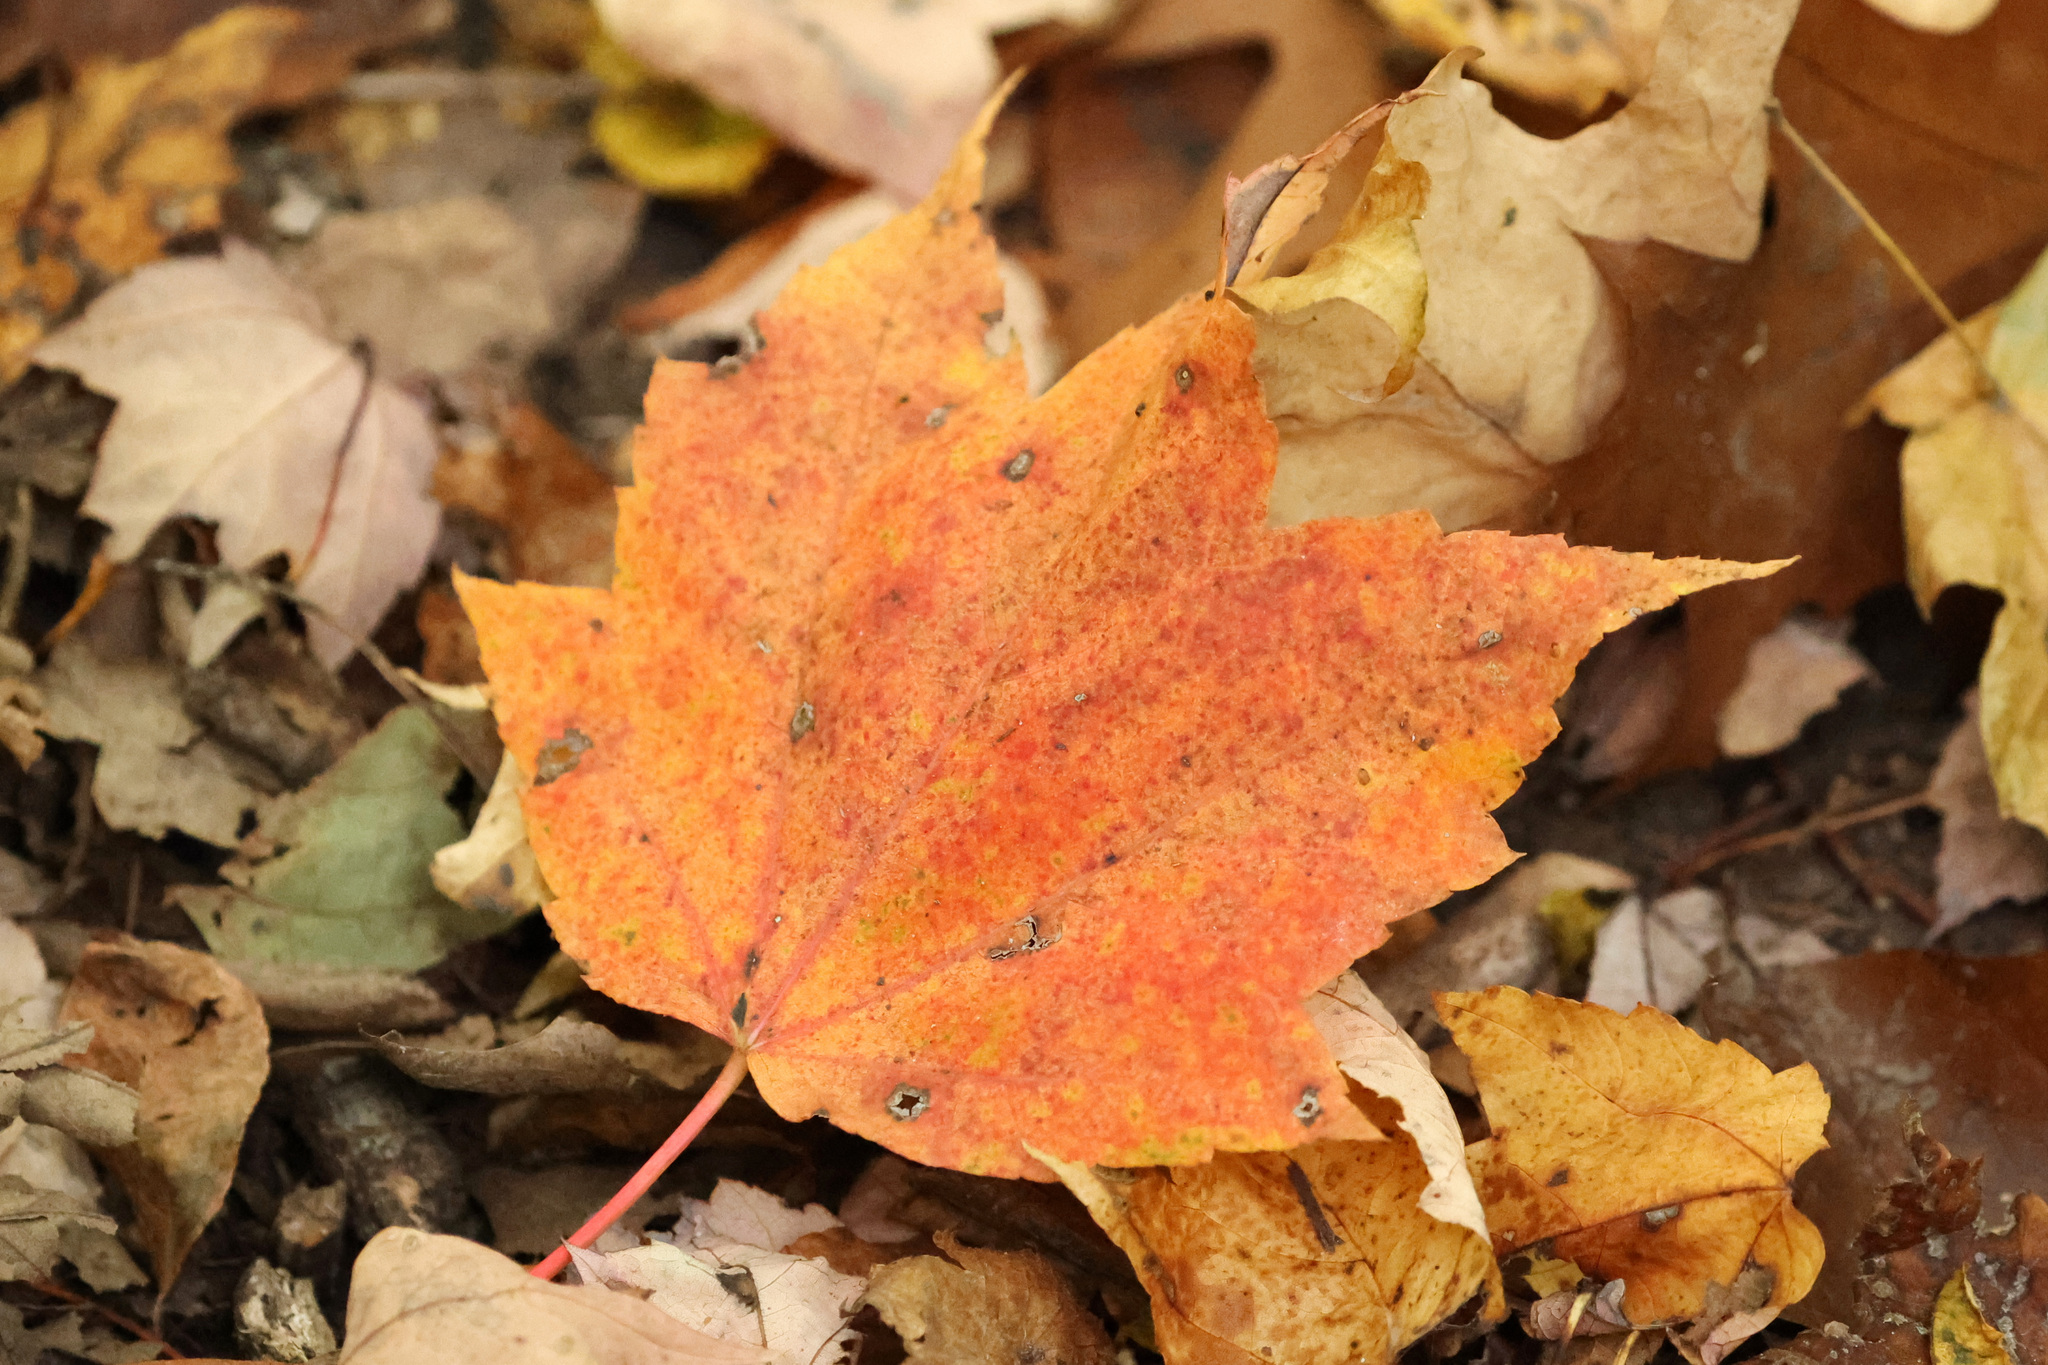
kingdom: Plantae
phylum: Tracheophyta
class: Magnoliopsida
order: Sapindales
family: Sapindaceae
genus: Acer
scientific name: Acer rubrum
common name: Red maple
